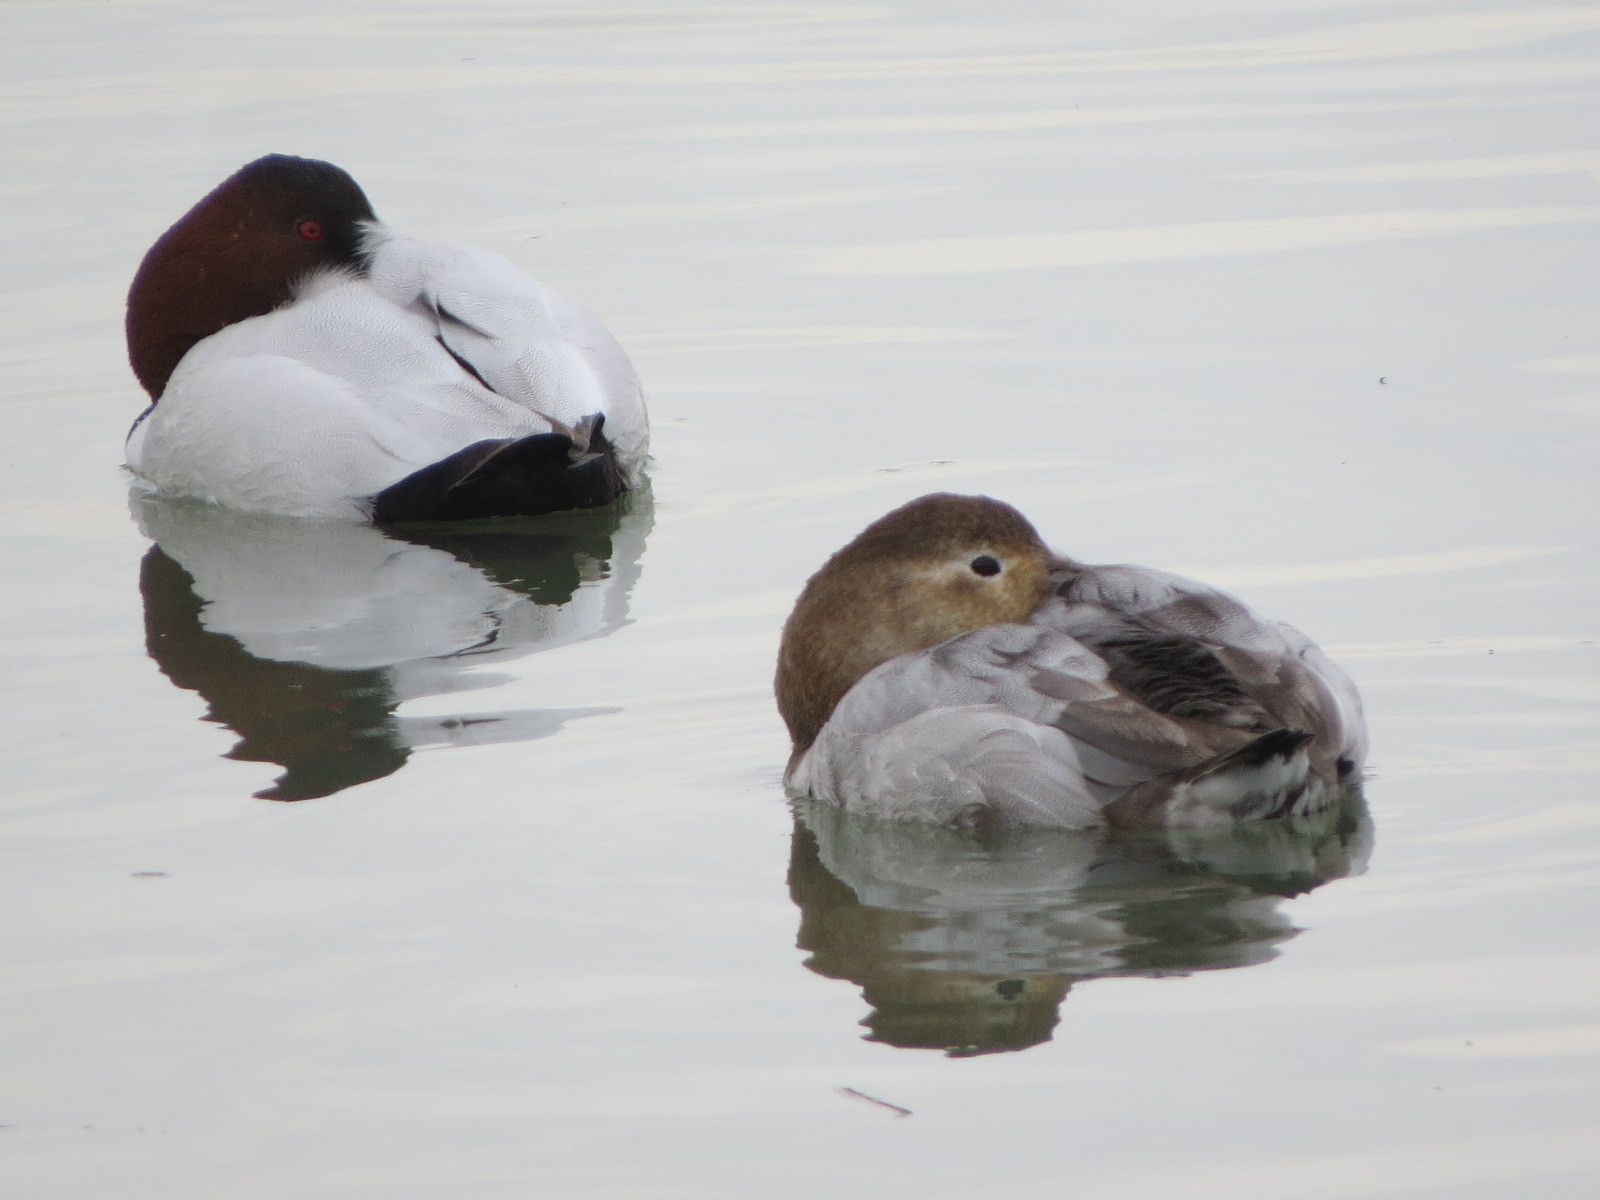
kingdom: Animalia
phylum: Chordata
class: Aves
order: Anseriformes
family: Anatidae
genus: Aythya
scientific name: Aythya valisineria
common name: Canvasback
